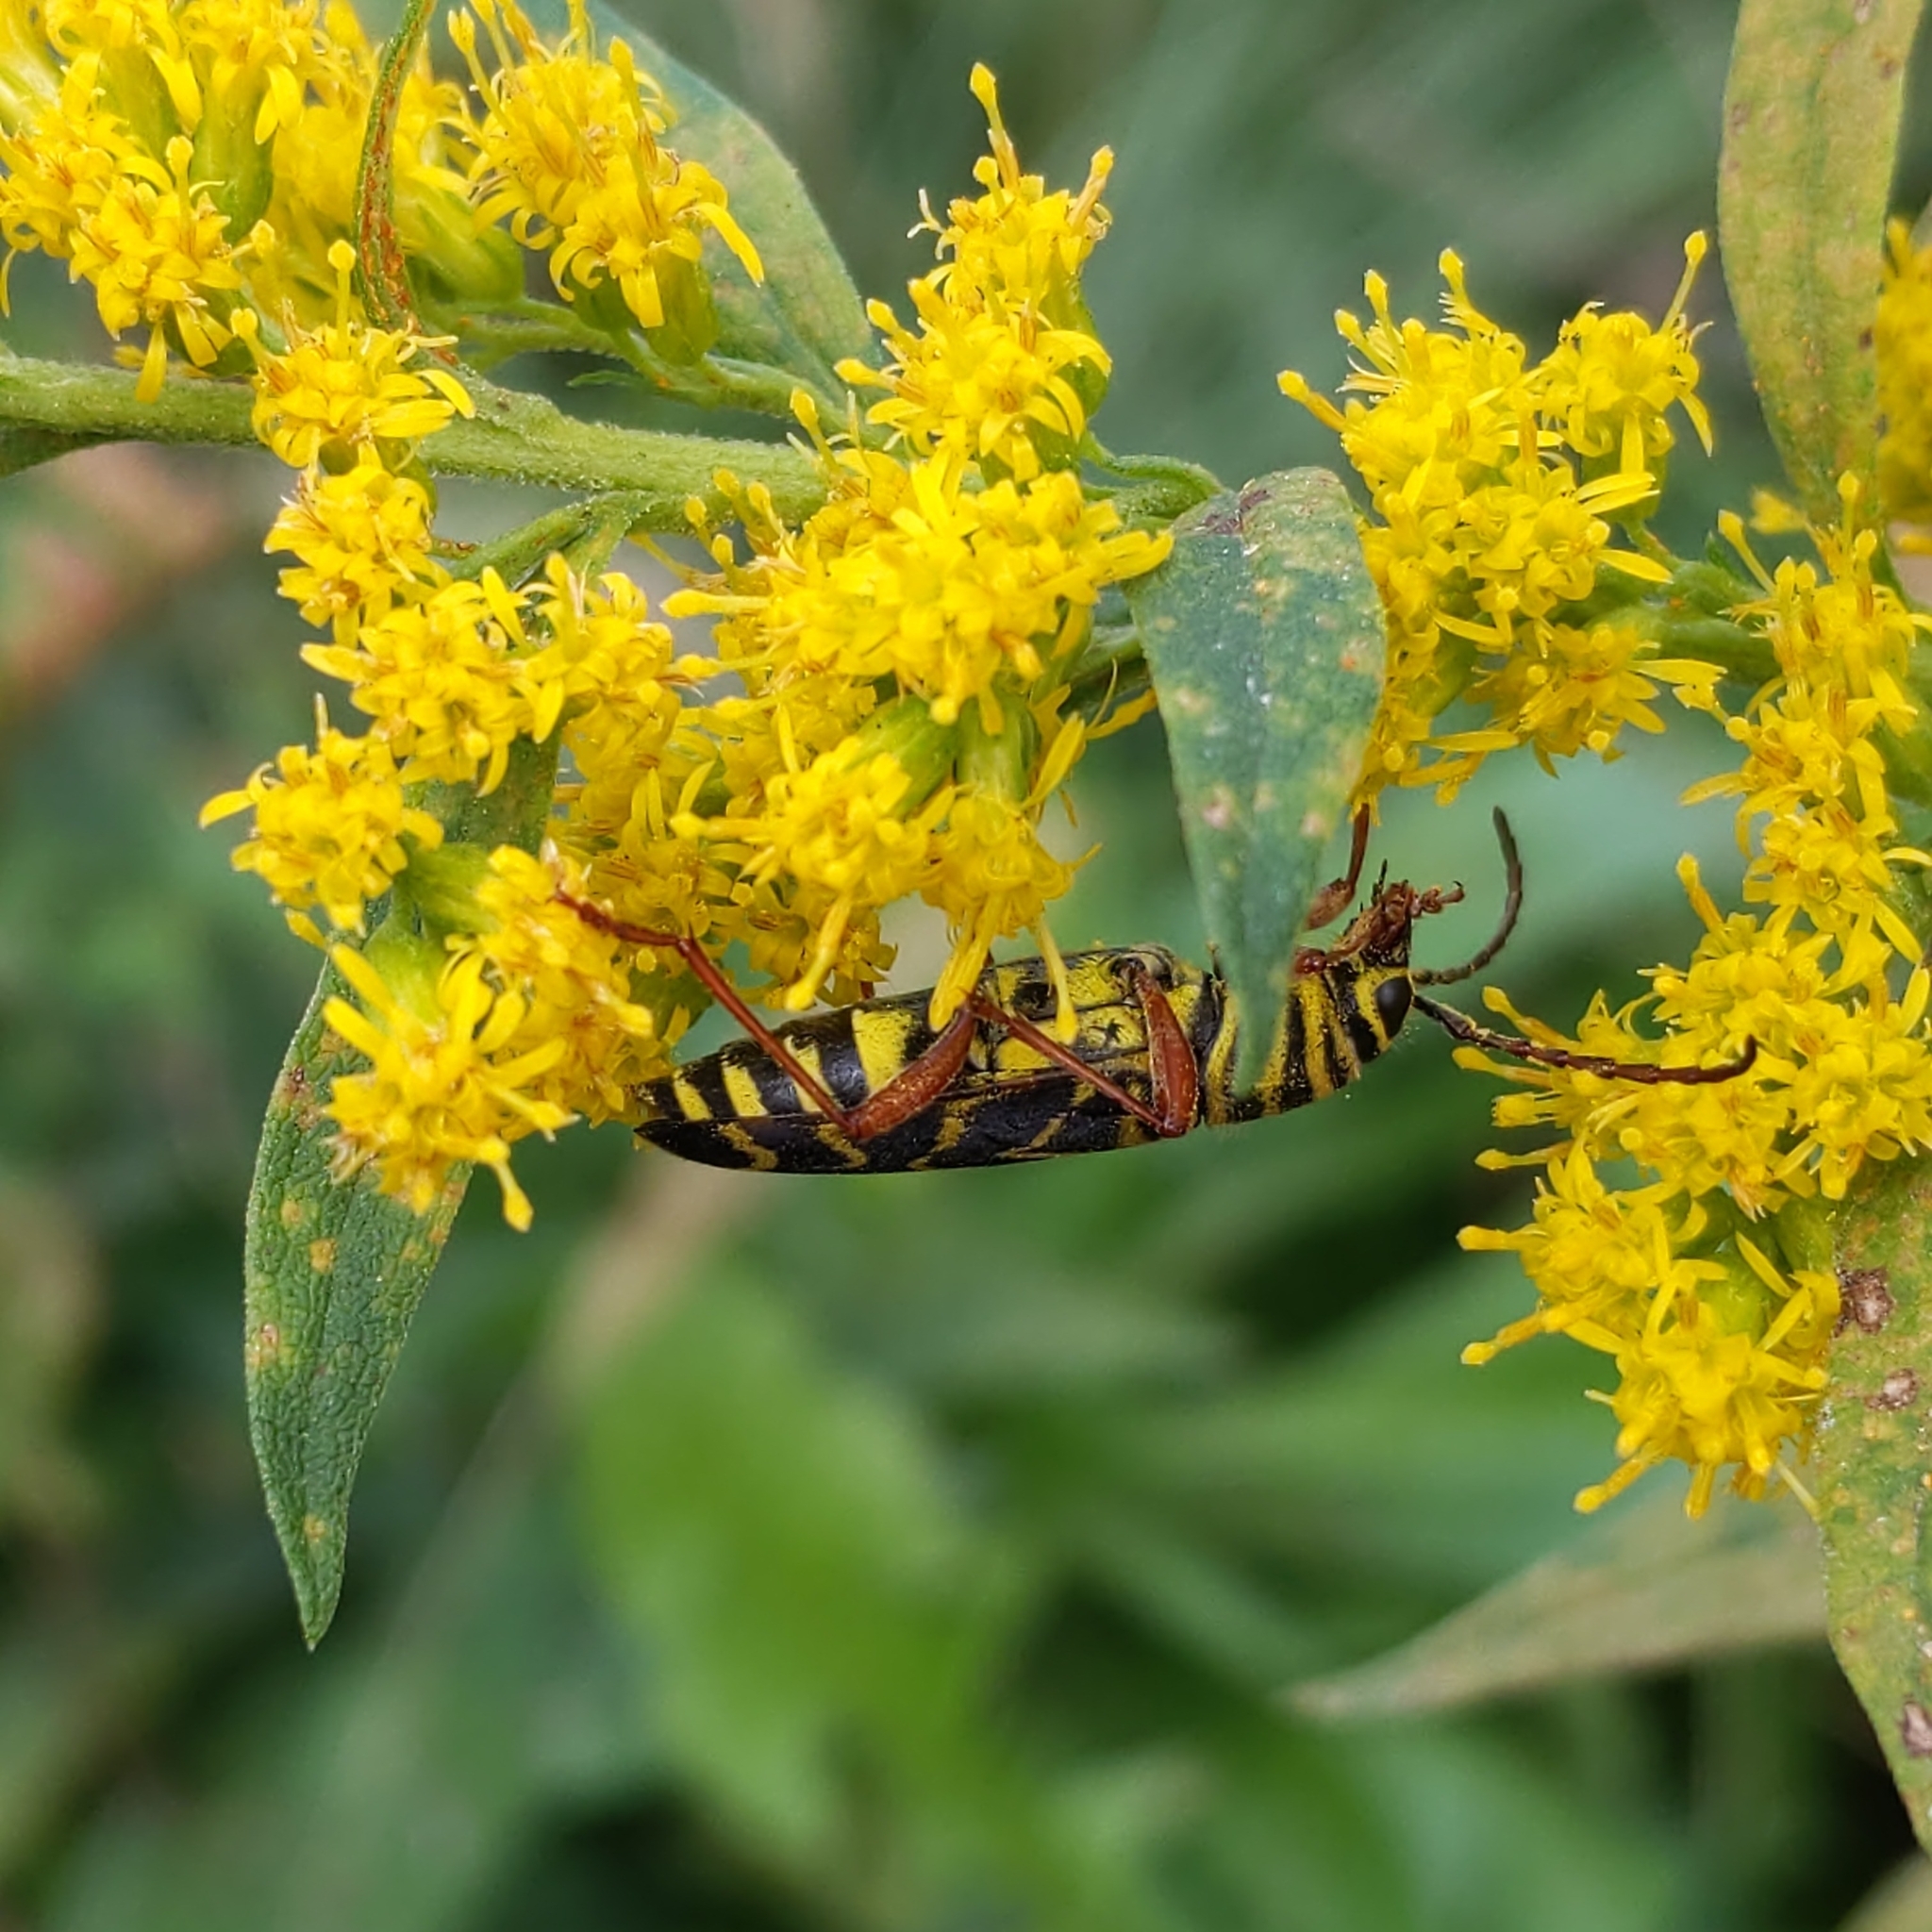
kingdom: Animalia
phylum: Arthropoda
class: Insecta
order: Coleoptera
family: Cerambycidae
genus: Megacyllene
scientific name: Megacyllene robiniae
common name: Locust borer
